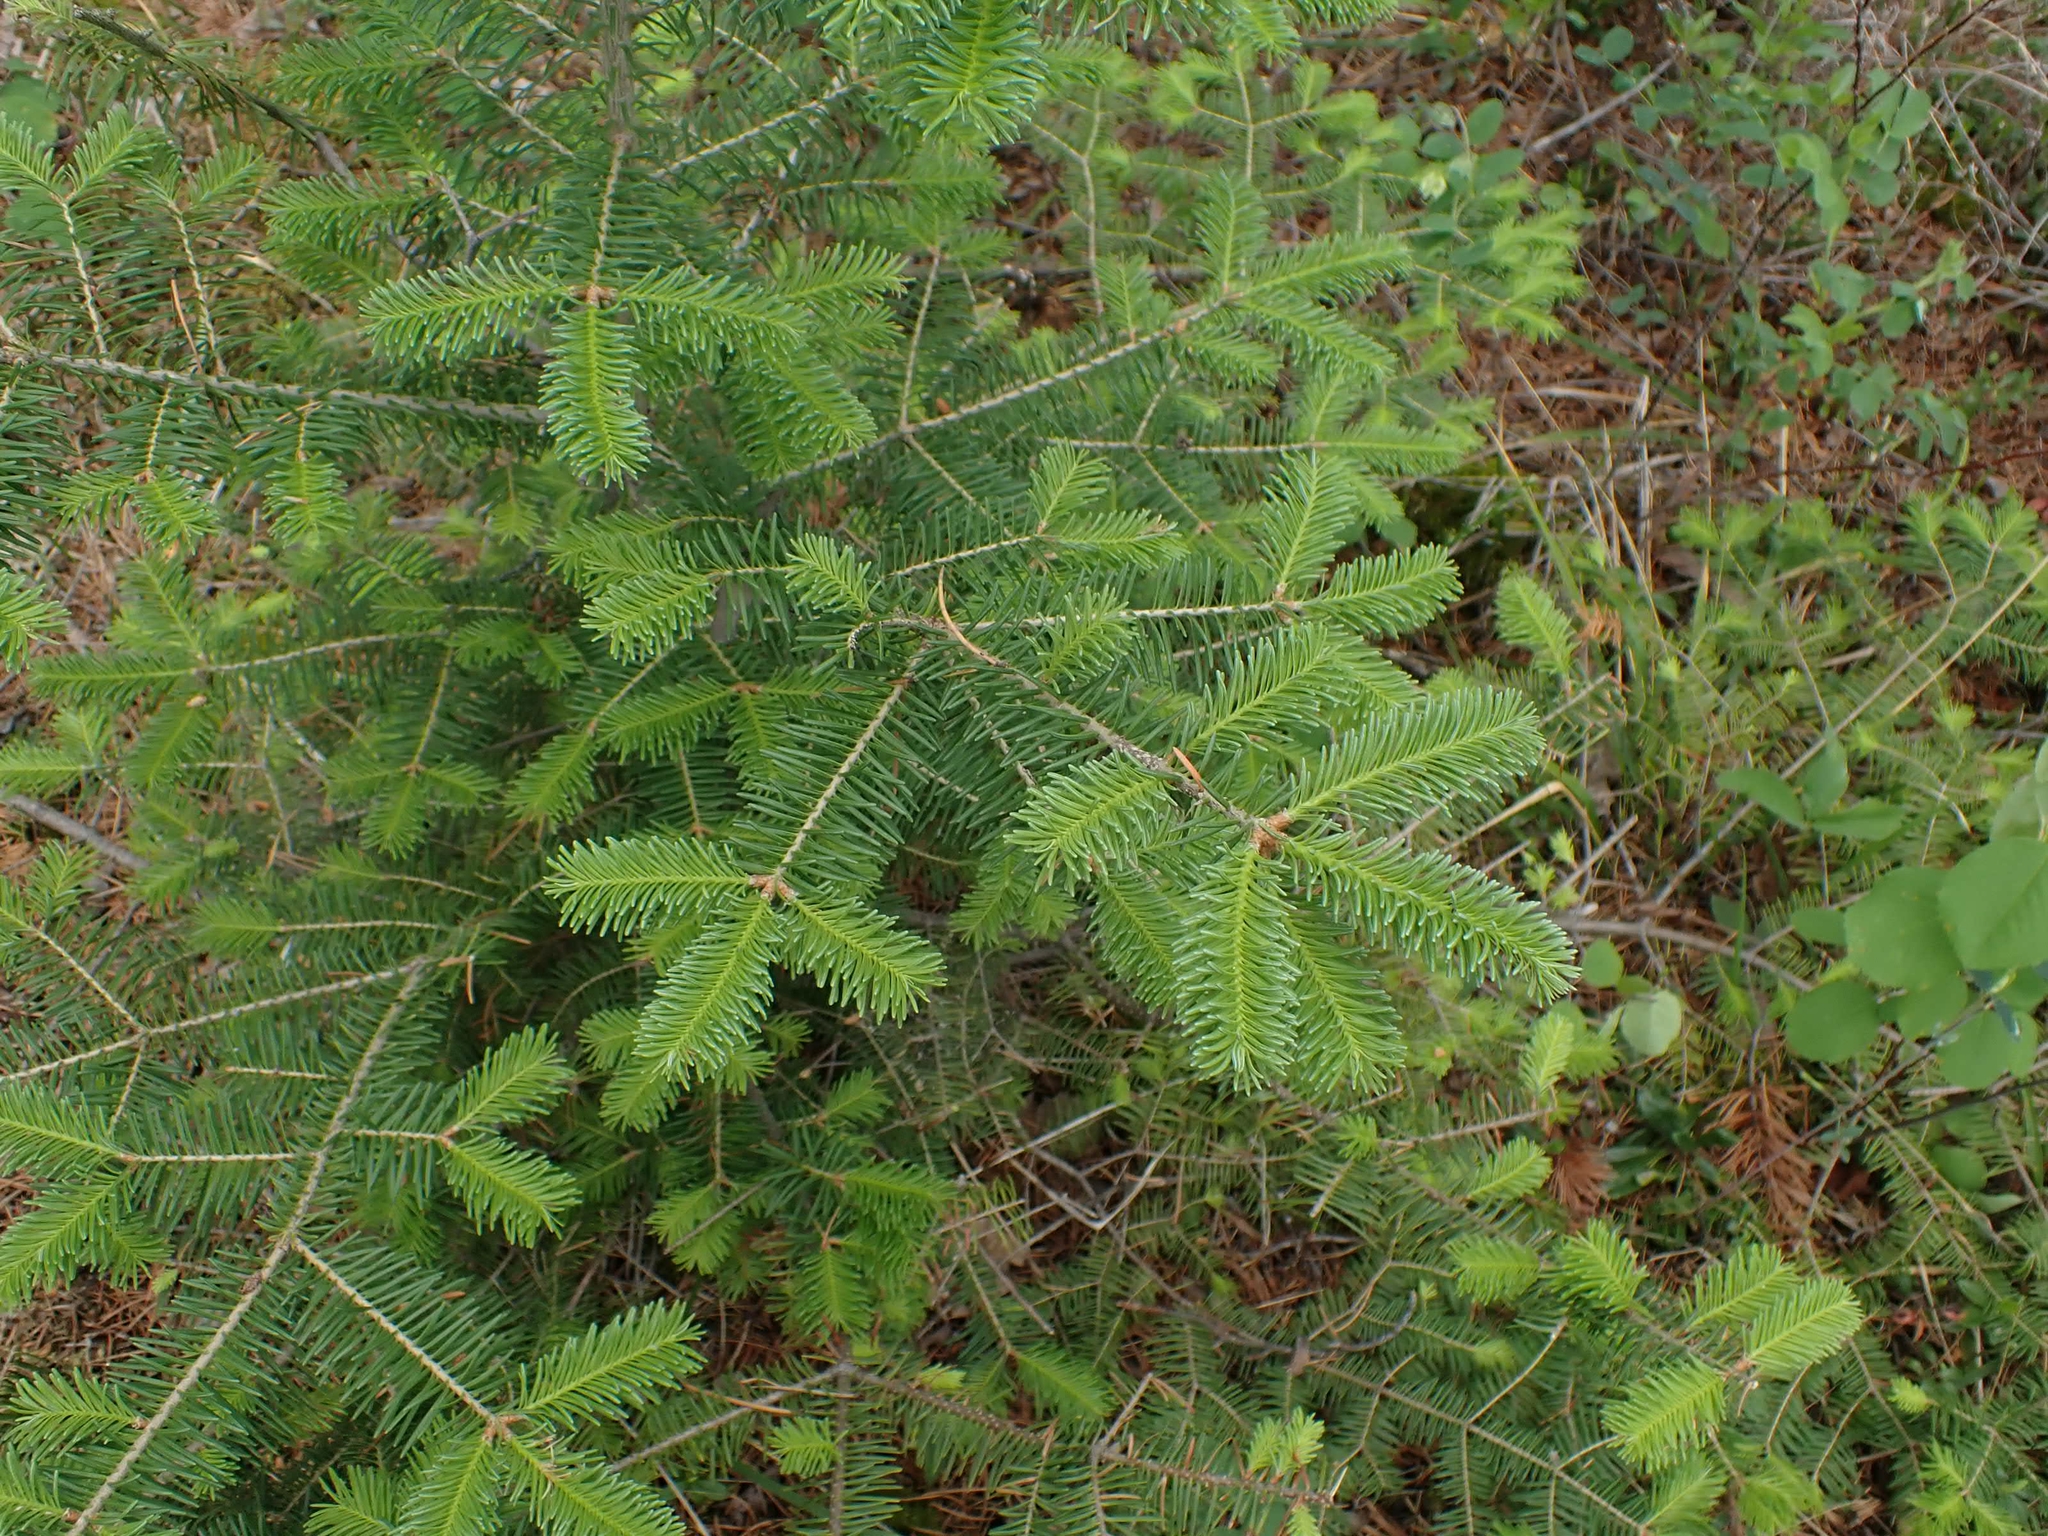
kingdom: Plantae
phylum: Tracheophyta
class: Pinopsida
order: Pinales
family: Pinaceae
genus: Abies
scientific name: Abies balsamea
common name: Balsam fir
